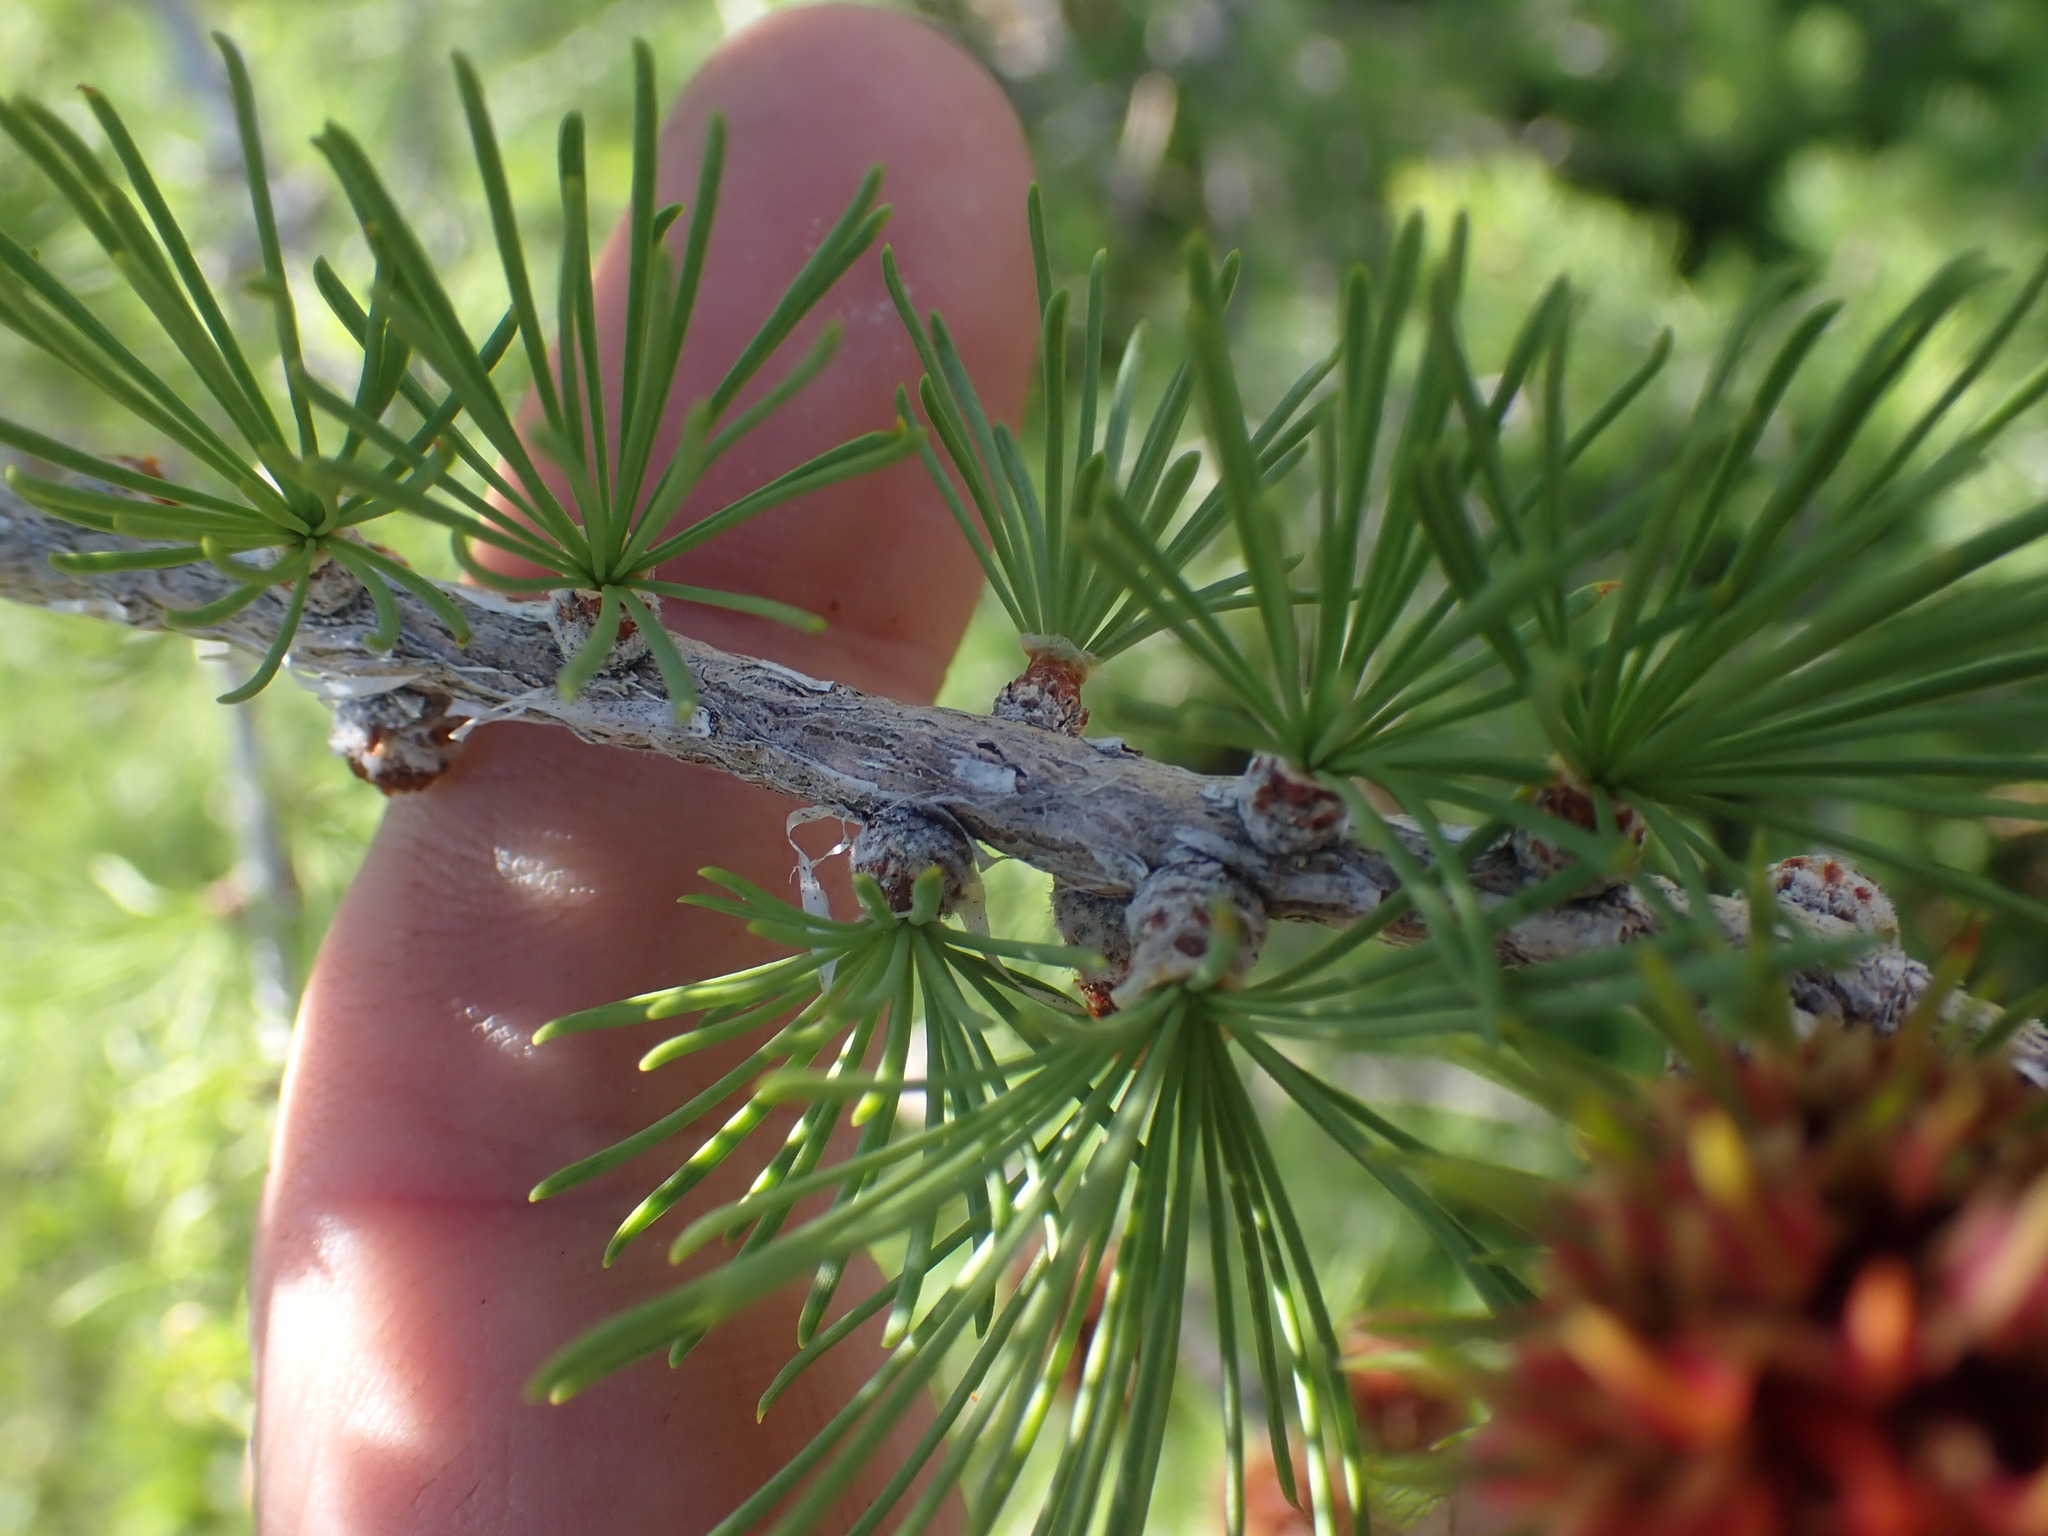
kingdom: Plantae
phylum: Tracheophyta
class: Pinopsida
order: Pinales
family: Pinaceae
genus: Larix
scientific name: Larix lyallii
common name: Alpine larch
